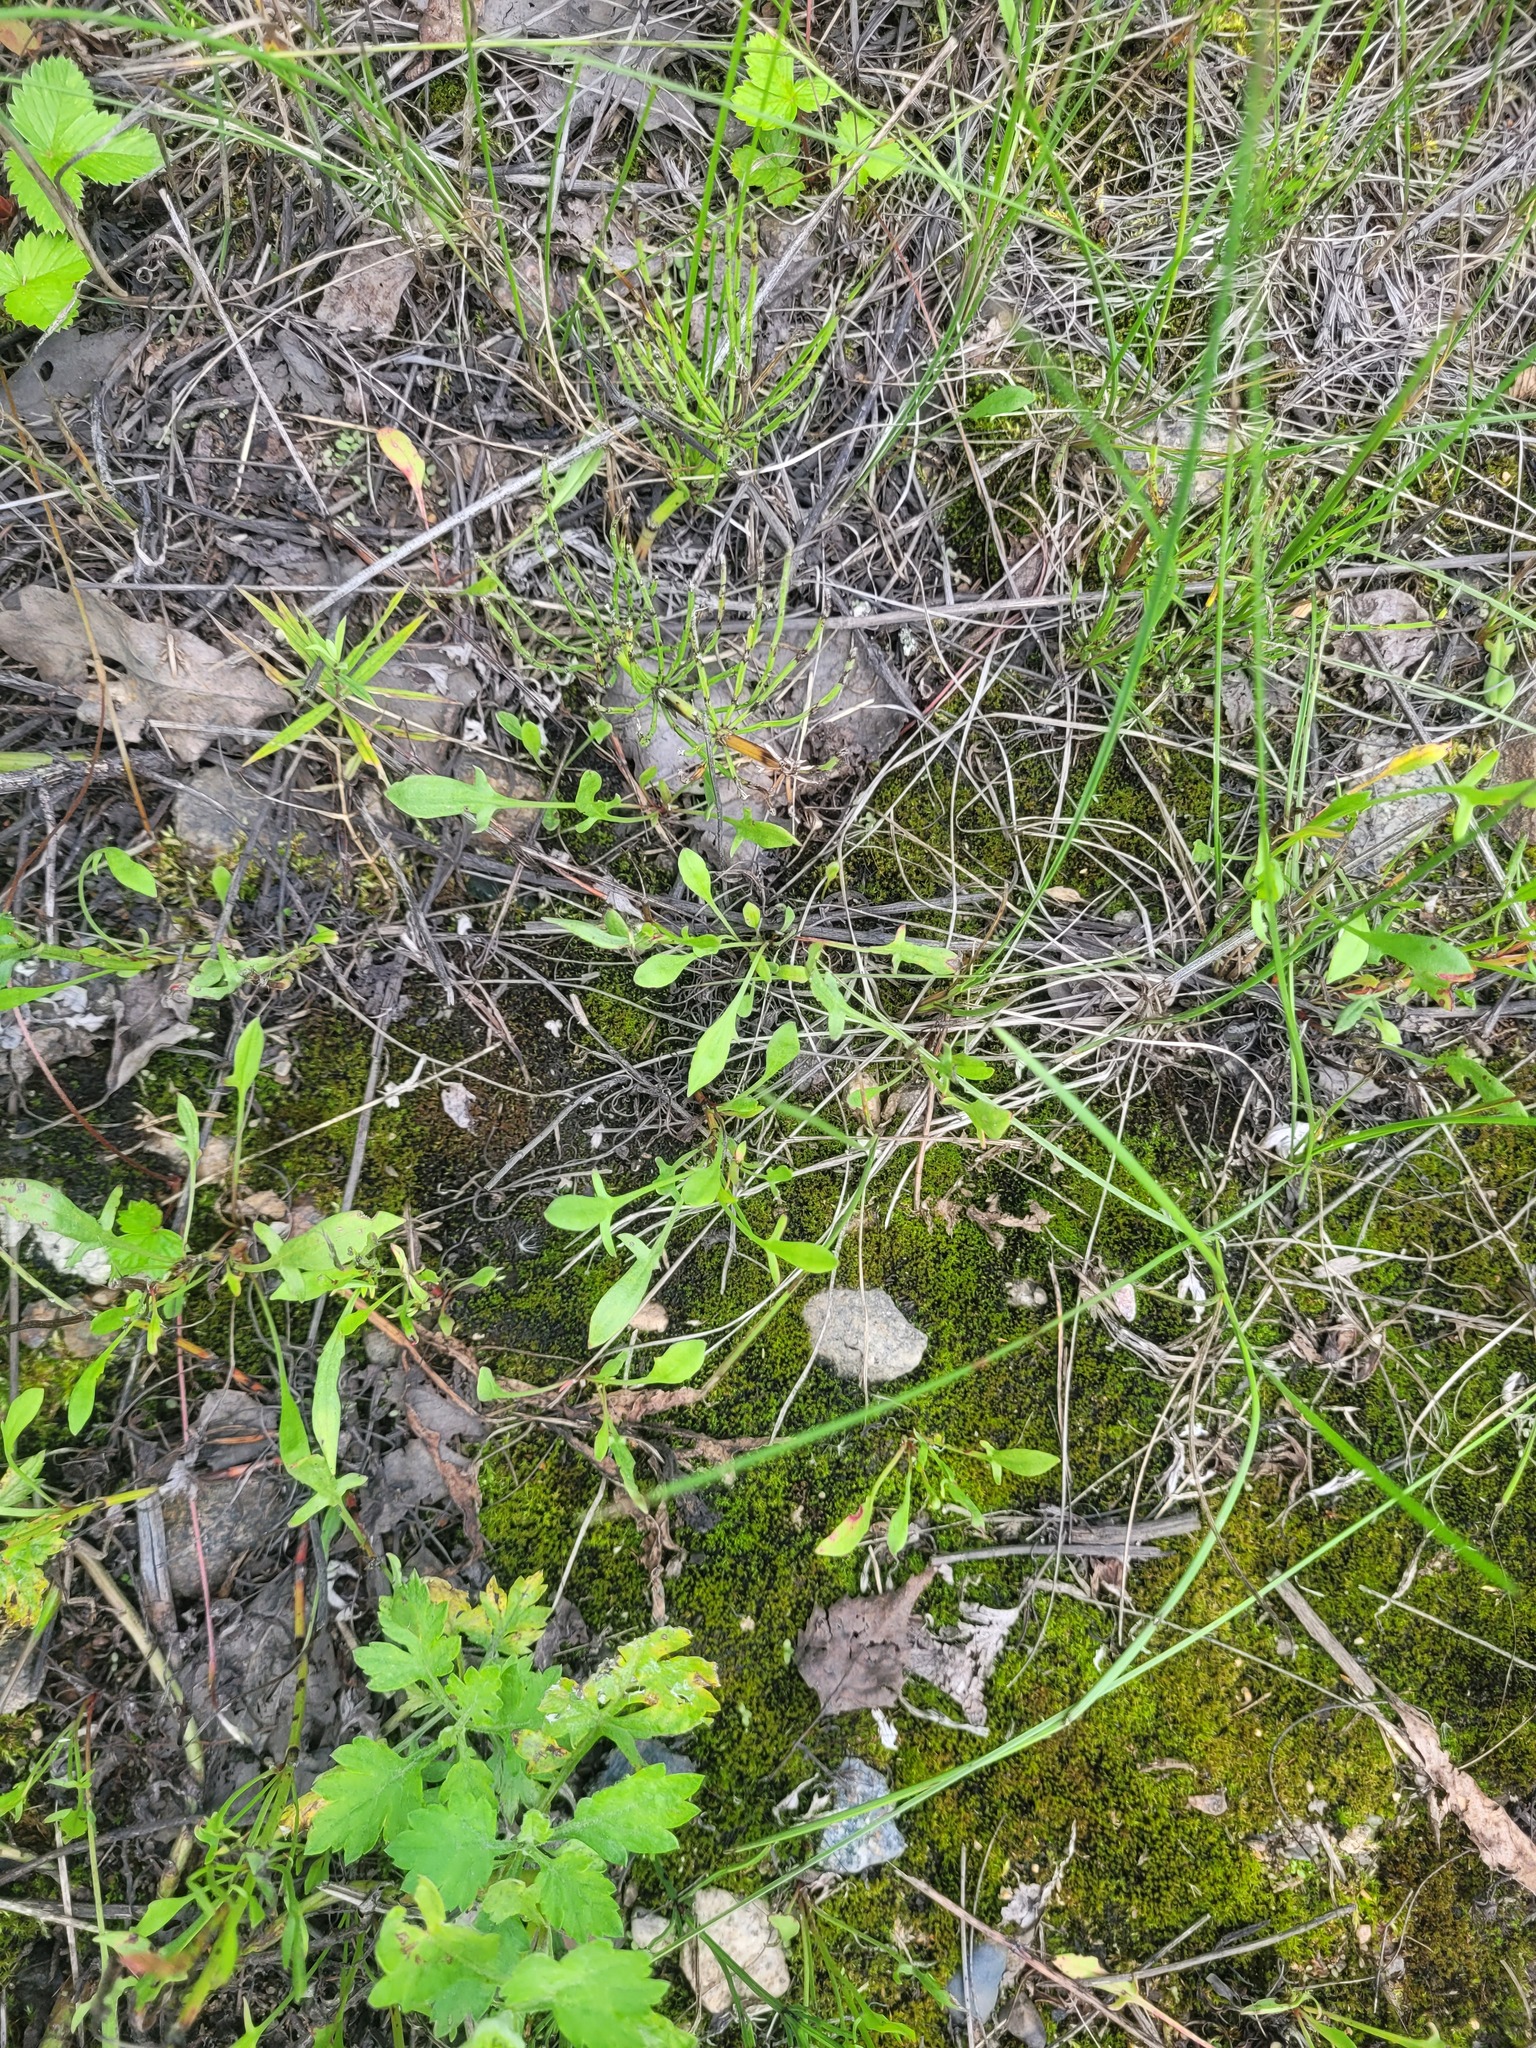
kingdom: Plantae
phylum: Tracheophyta
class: Magnoliopsida
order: Caryophyllales
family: Polygonaceae
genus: Rumex
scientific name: Rumex acetosella
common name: Common sheep sorrel
